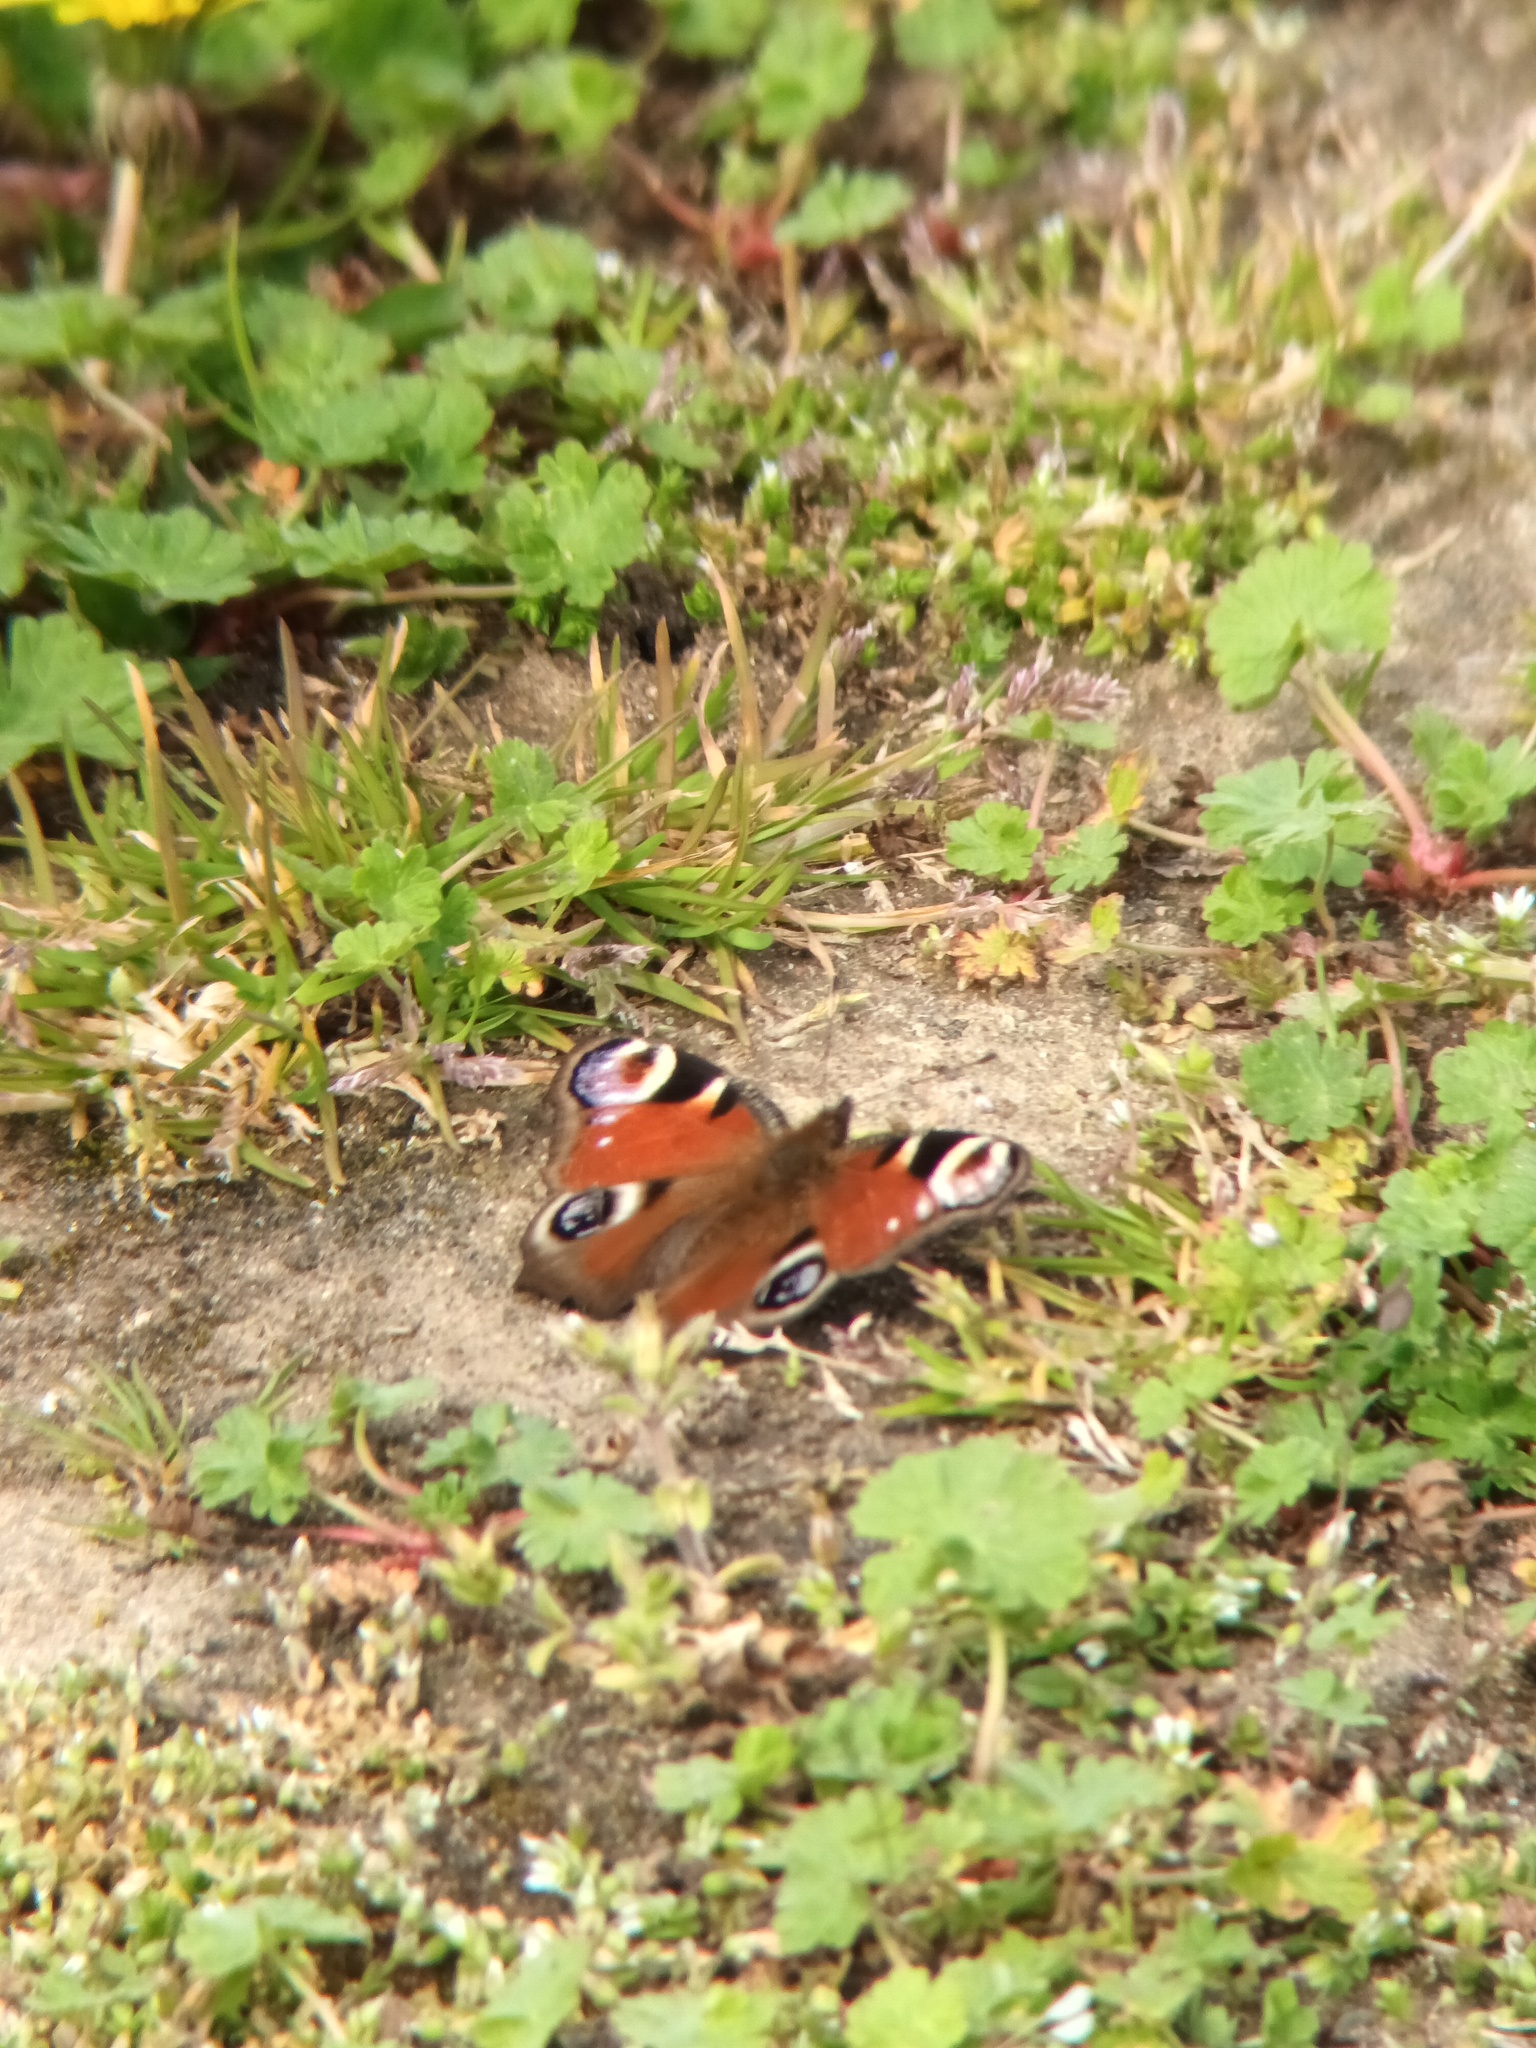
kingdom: Animalia
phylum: Arthropoda
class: Insecta
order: Lepidoptera
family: Nymphalidae
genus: Aglais
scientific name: Aglais io
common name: Peacock
